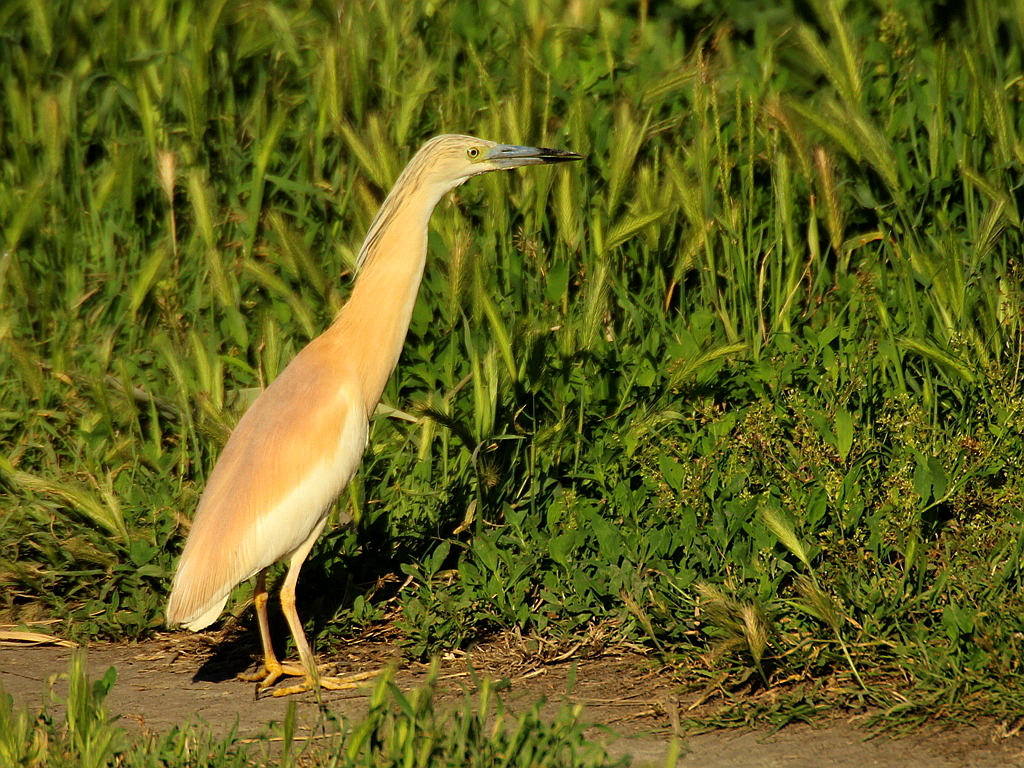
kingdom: Animalia
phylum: Chordata
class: Aves
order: Pelecaniformes
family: Ardeidae
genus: Ardeola
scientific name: Ardeola ralloides
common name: Squacco heron
